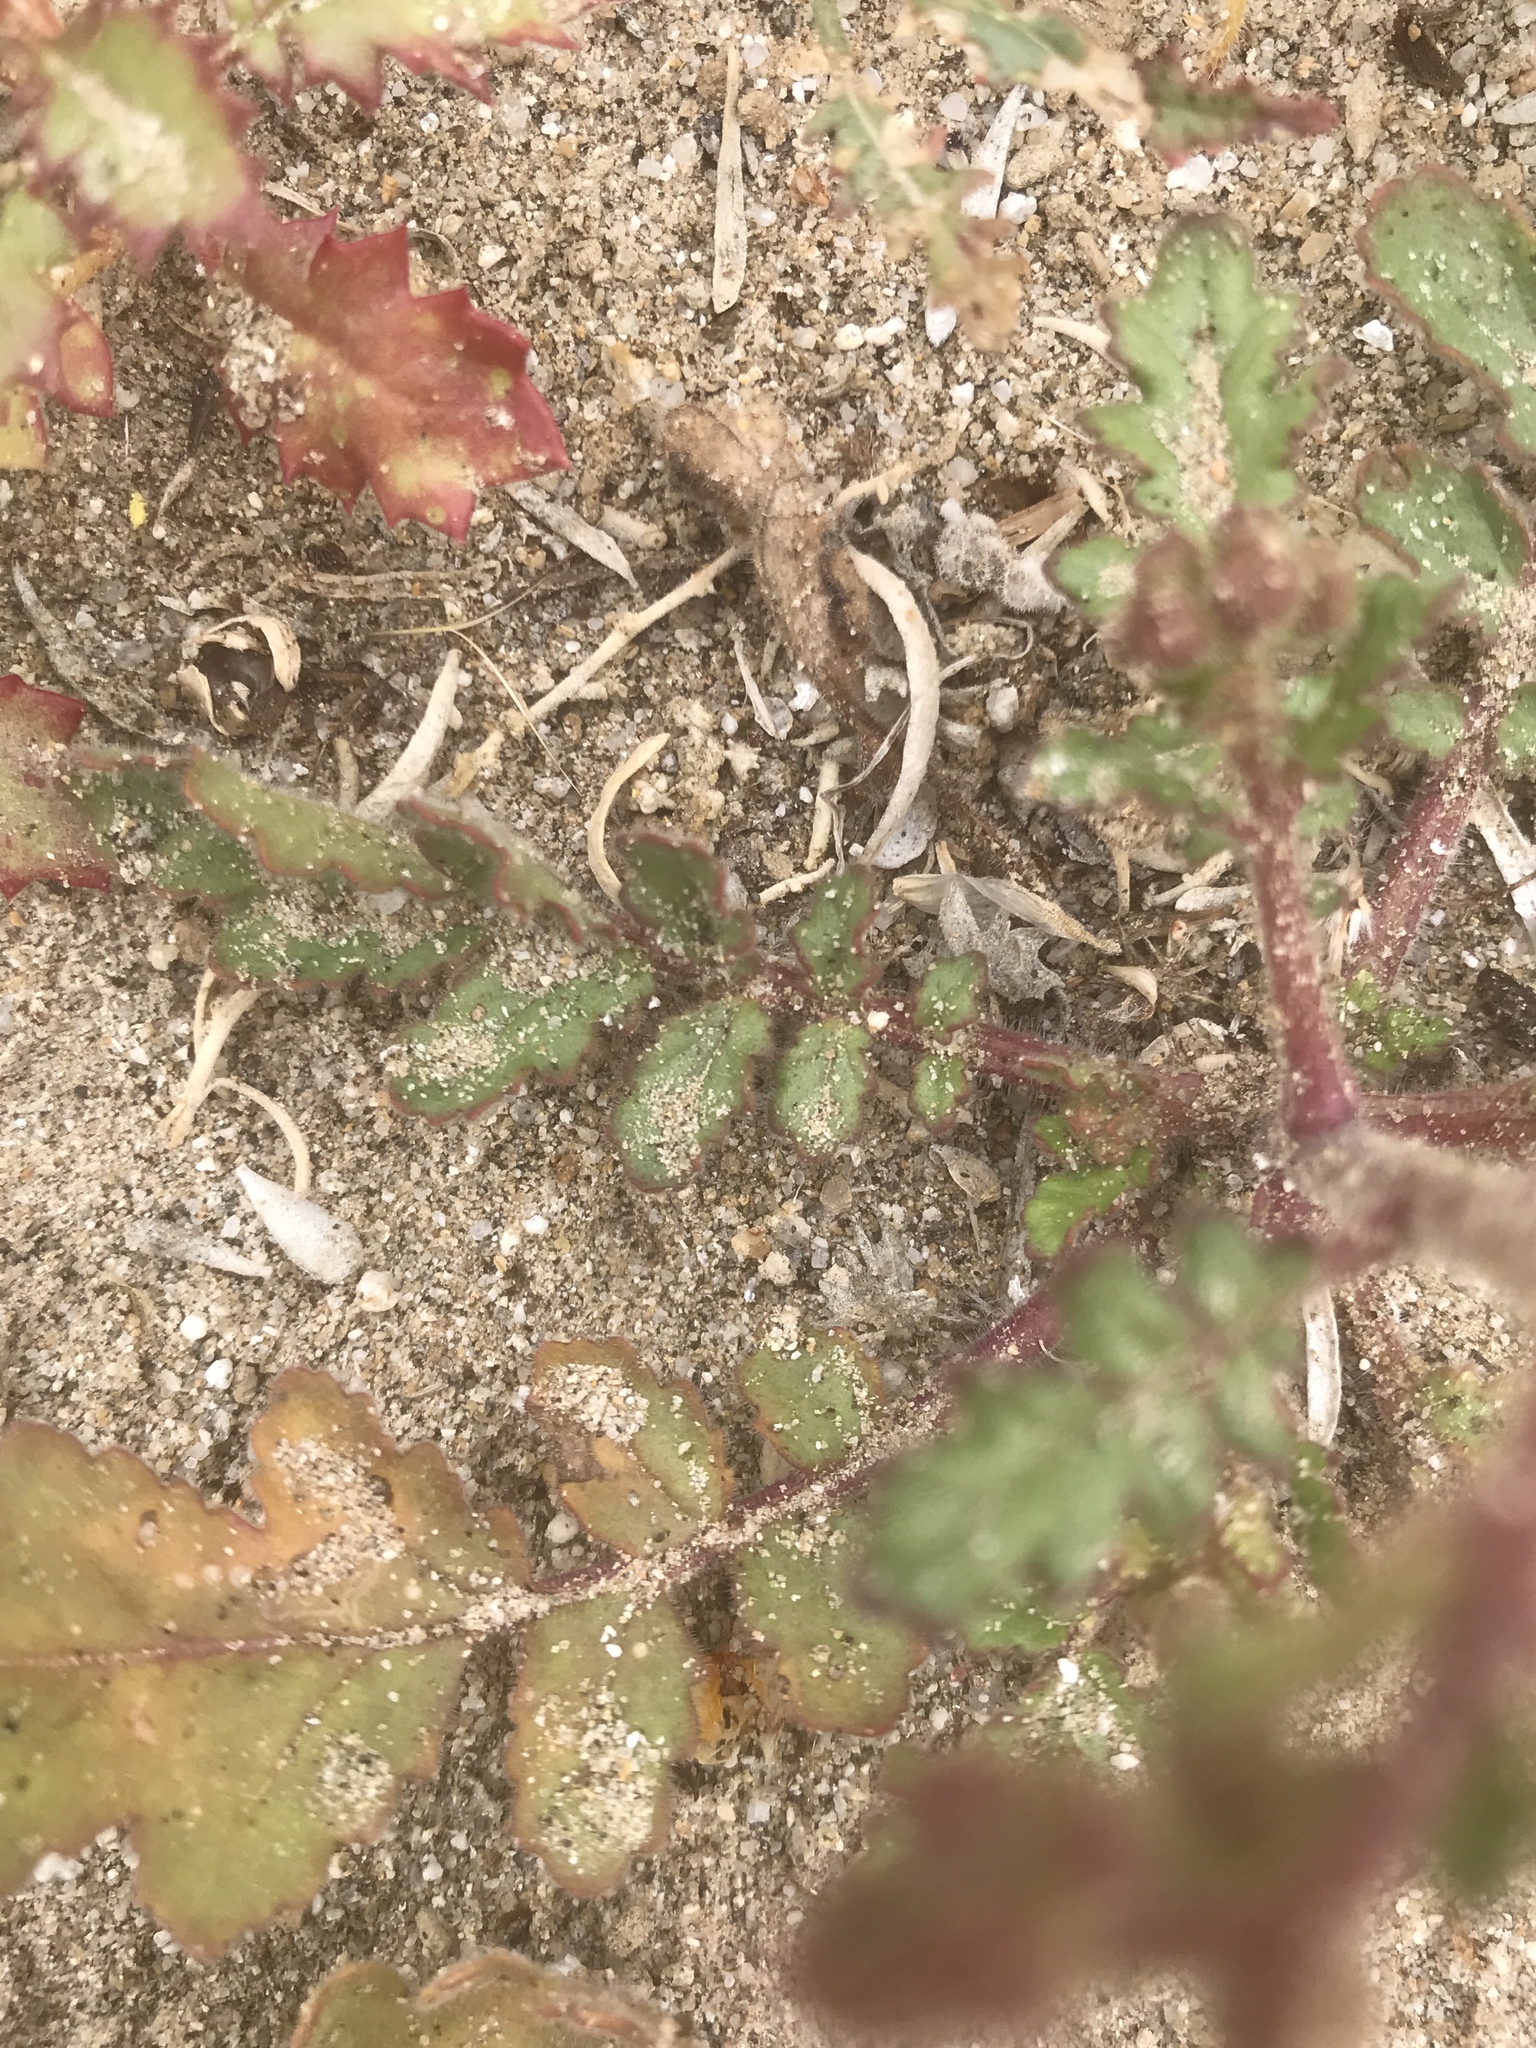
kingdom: Plantae
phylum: Tracheophyta
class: Magnoliopsida
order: Boraginales
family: Hydrophyllaceae
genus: Phacelia
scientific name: Phacelia crenulata
